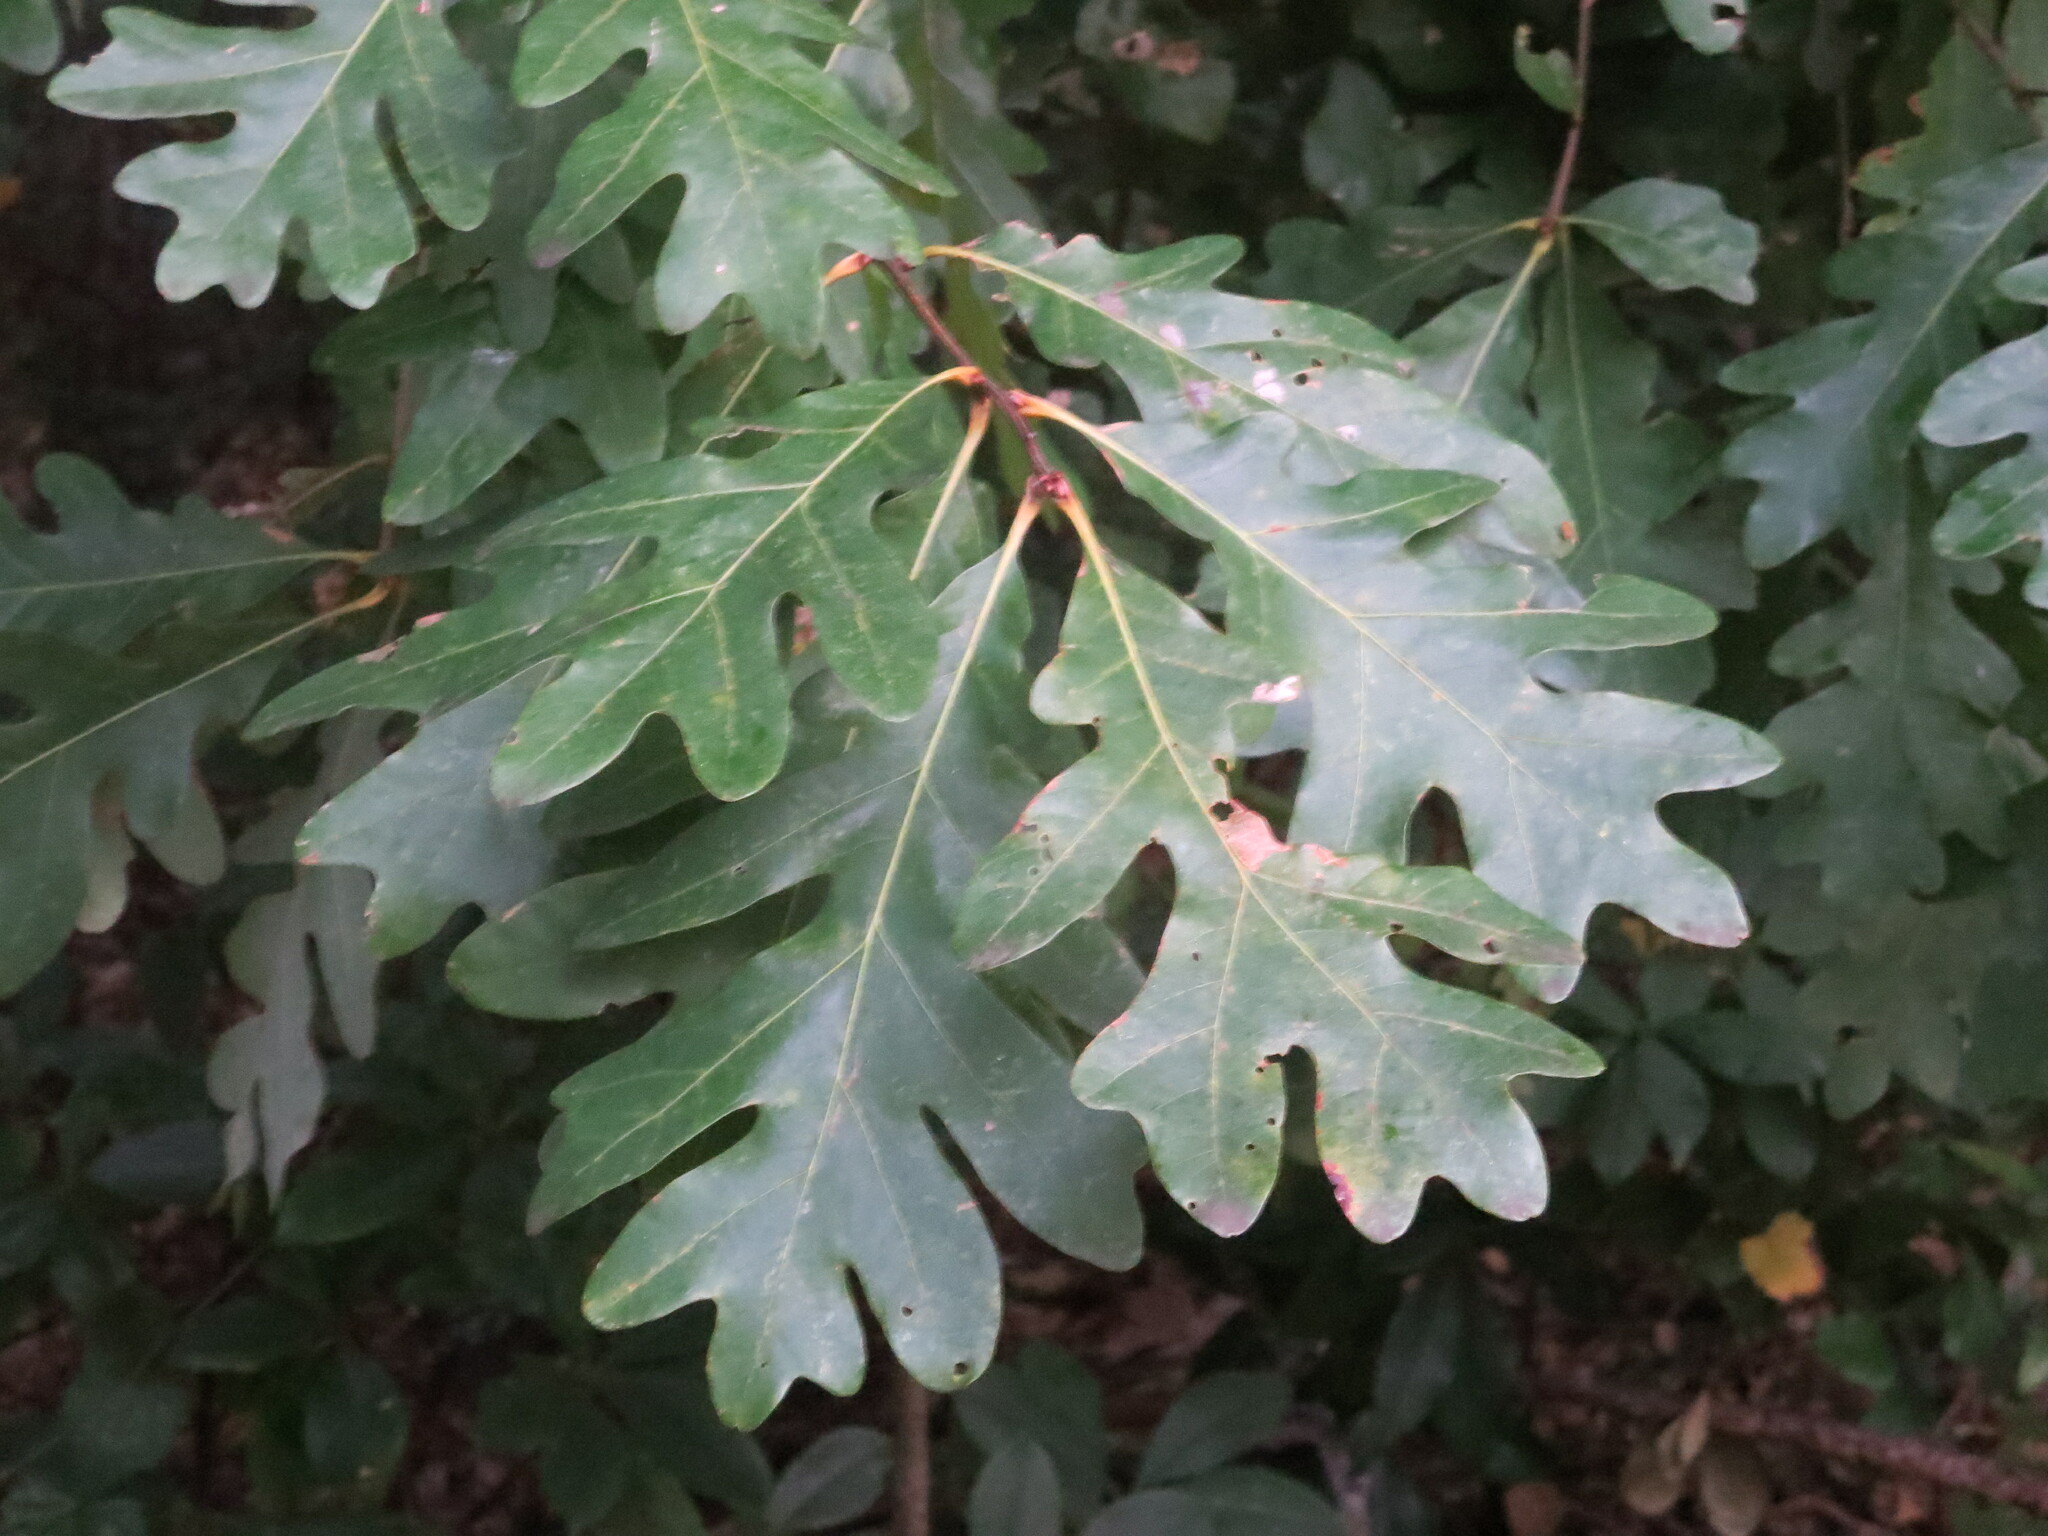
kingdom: Plantae
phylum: Tracheophyta
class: Magnoliopsida
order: Fagales
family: Fagaceae
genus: Quercus
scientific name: Quercus alba
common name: White oak
